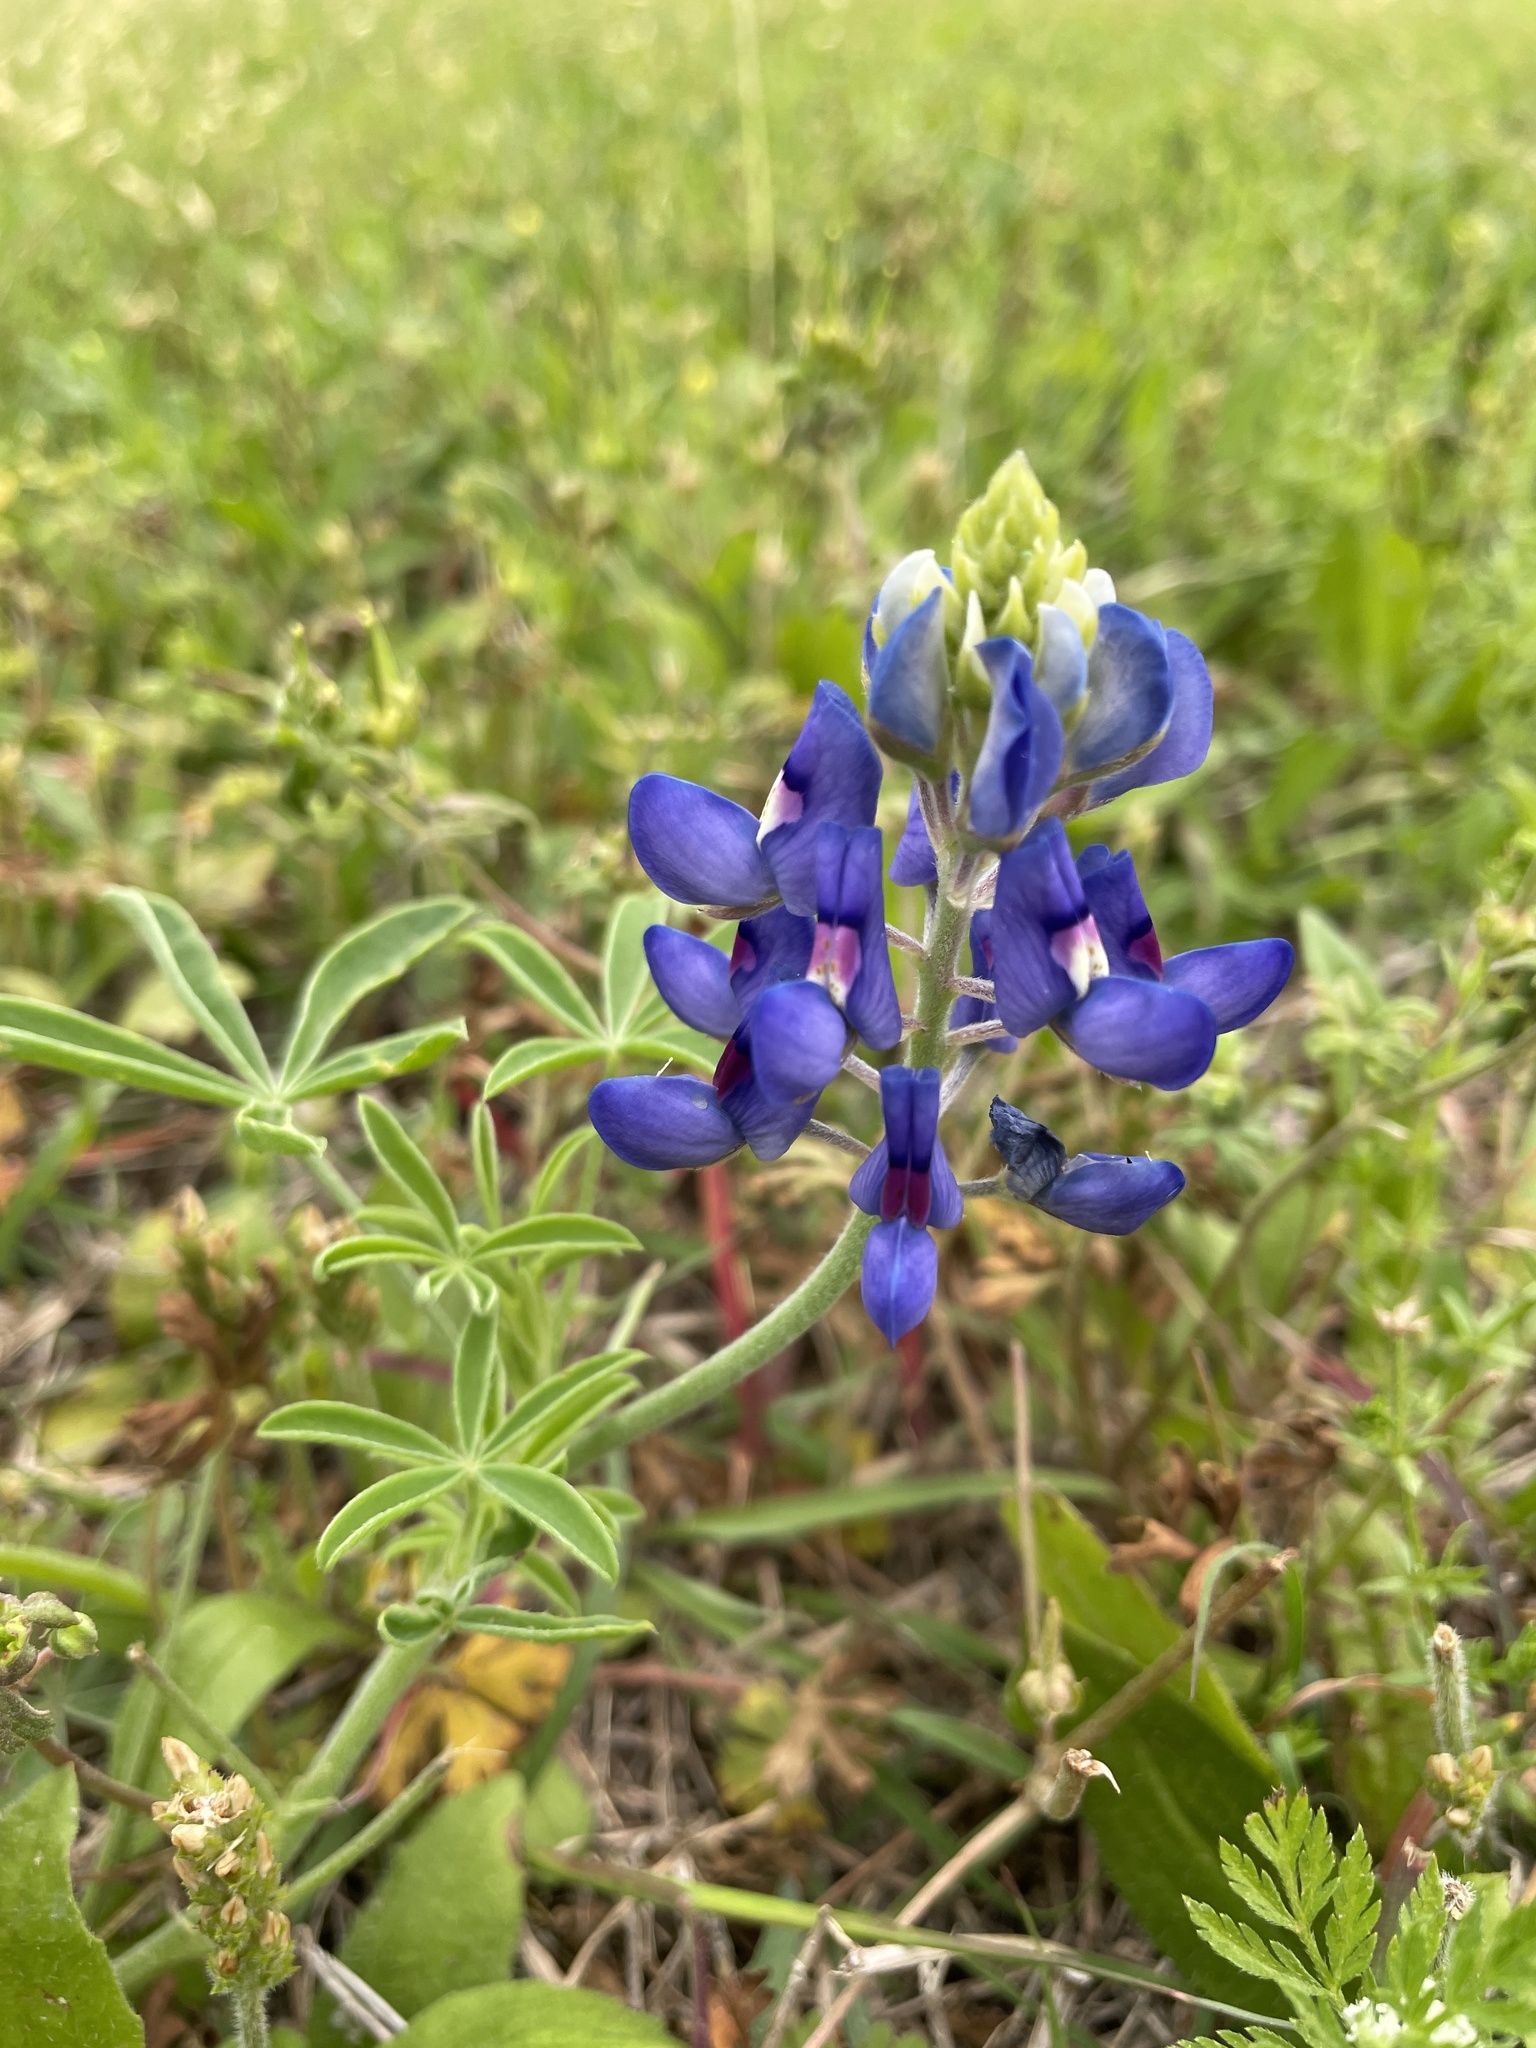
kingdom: Plantae
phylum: Tracheophyta
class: Magnoliopsida
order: Fabales
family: Fabaceae
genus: Lupinus
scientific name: Lupinus texensis
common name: Texas bluebonnet
